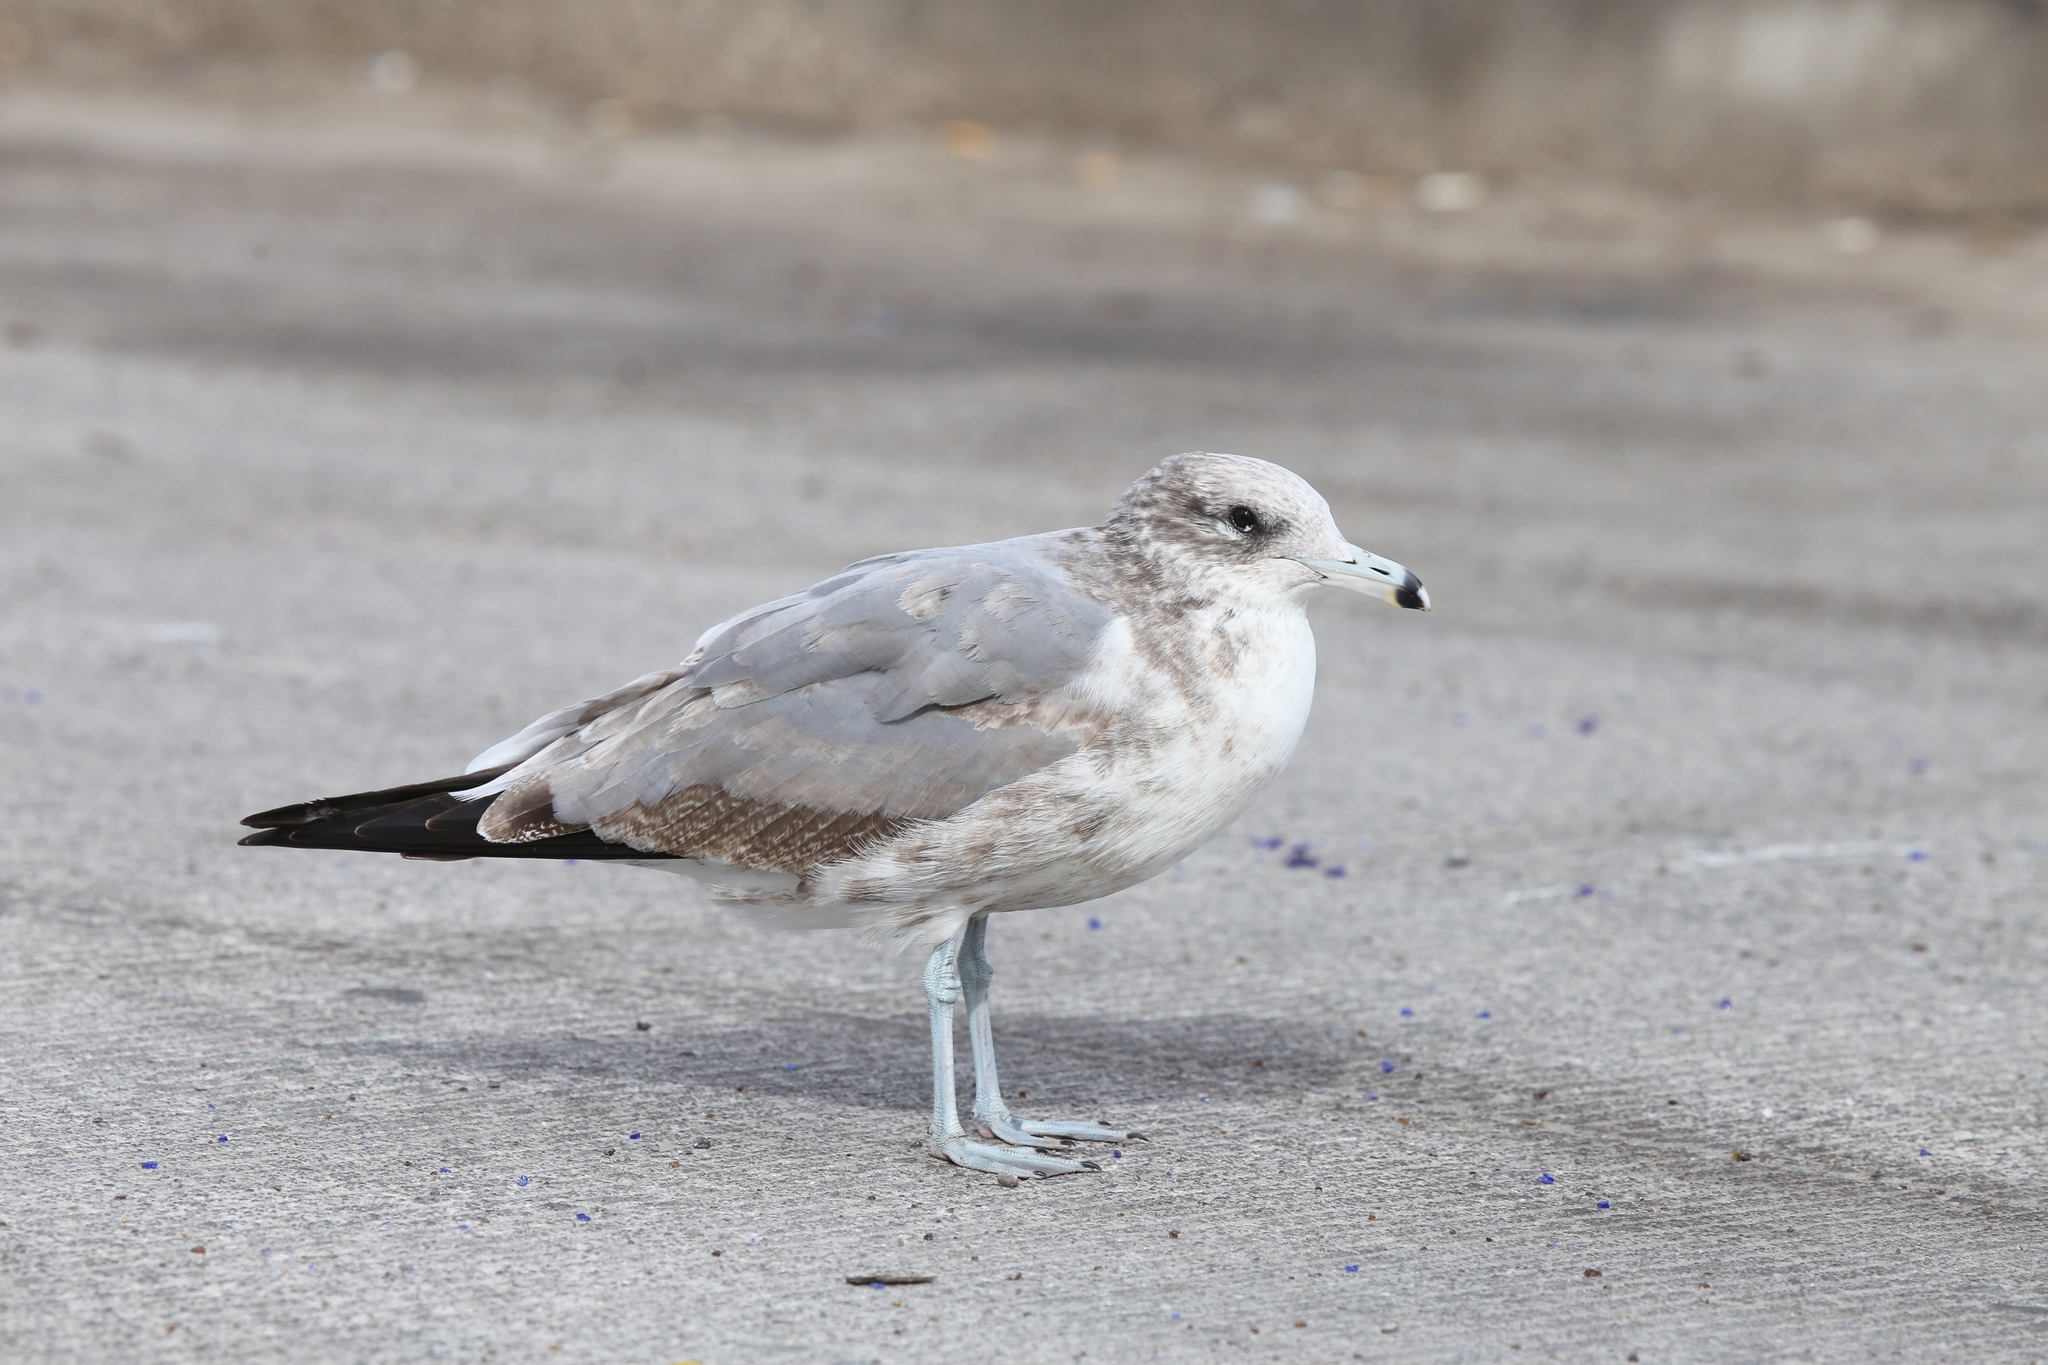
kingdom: Animalia
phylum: Chordata
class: Aves
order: Charadriiformes
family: Laridae
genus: Larus
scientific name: Larus californicus
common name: California gull
